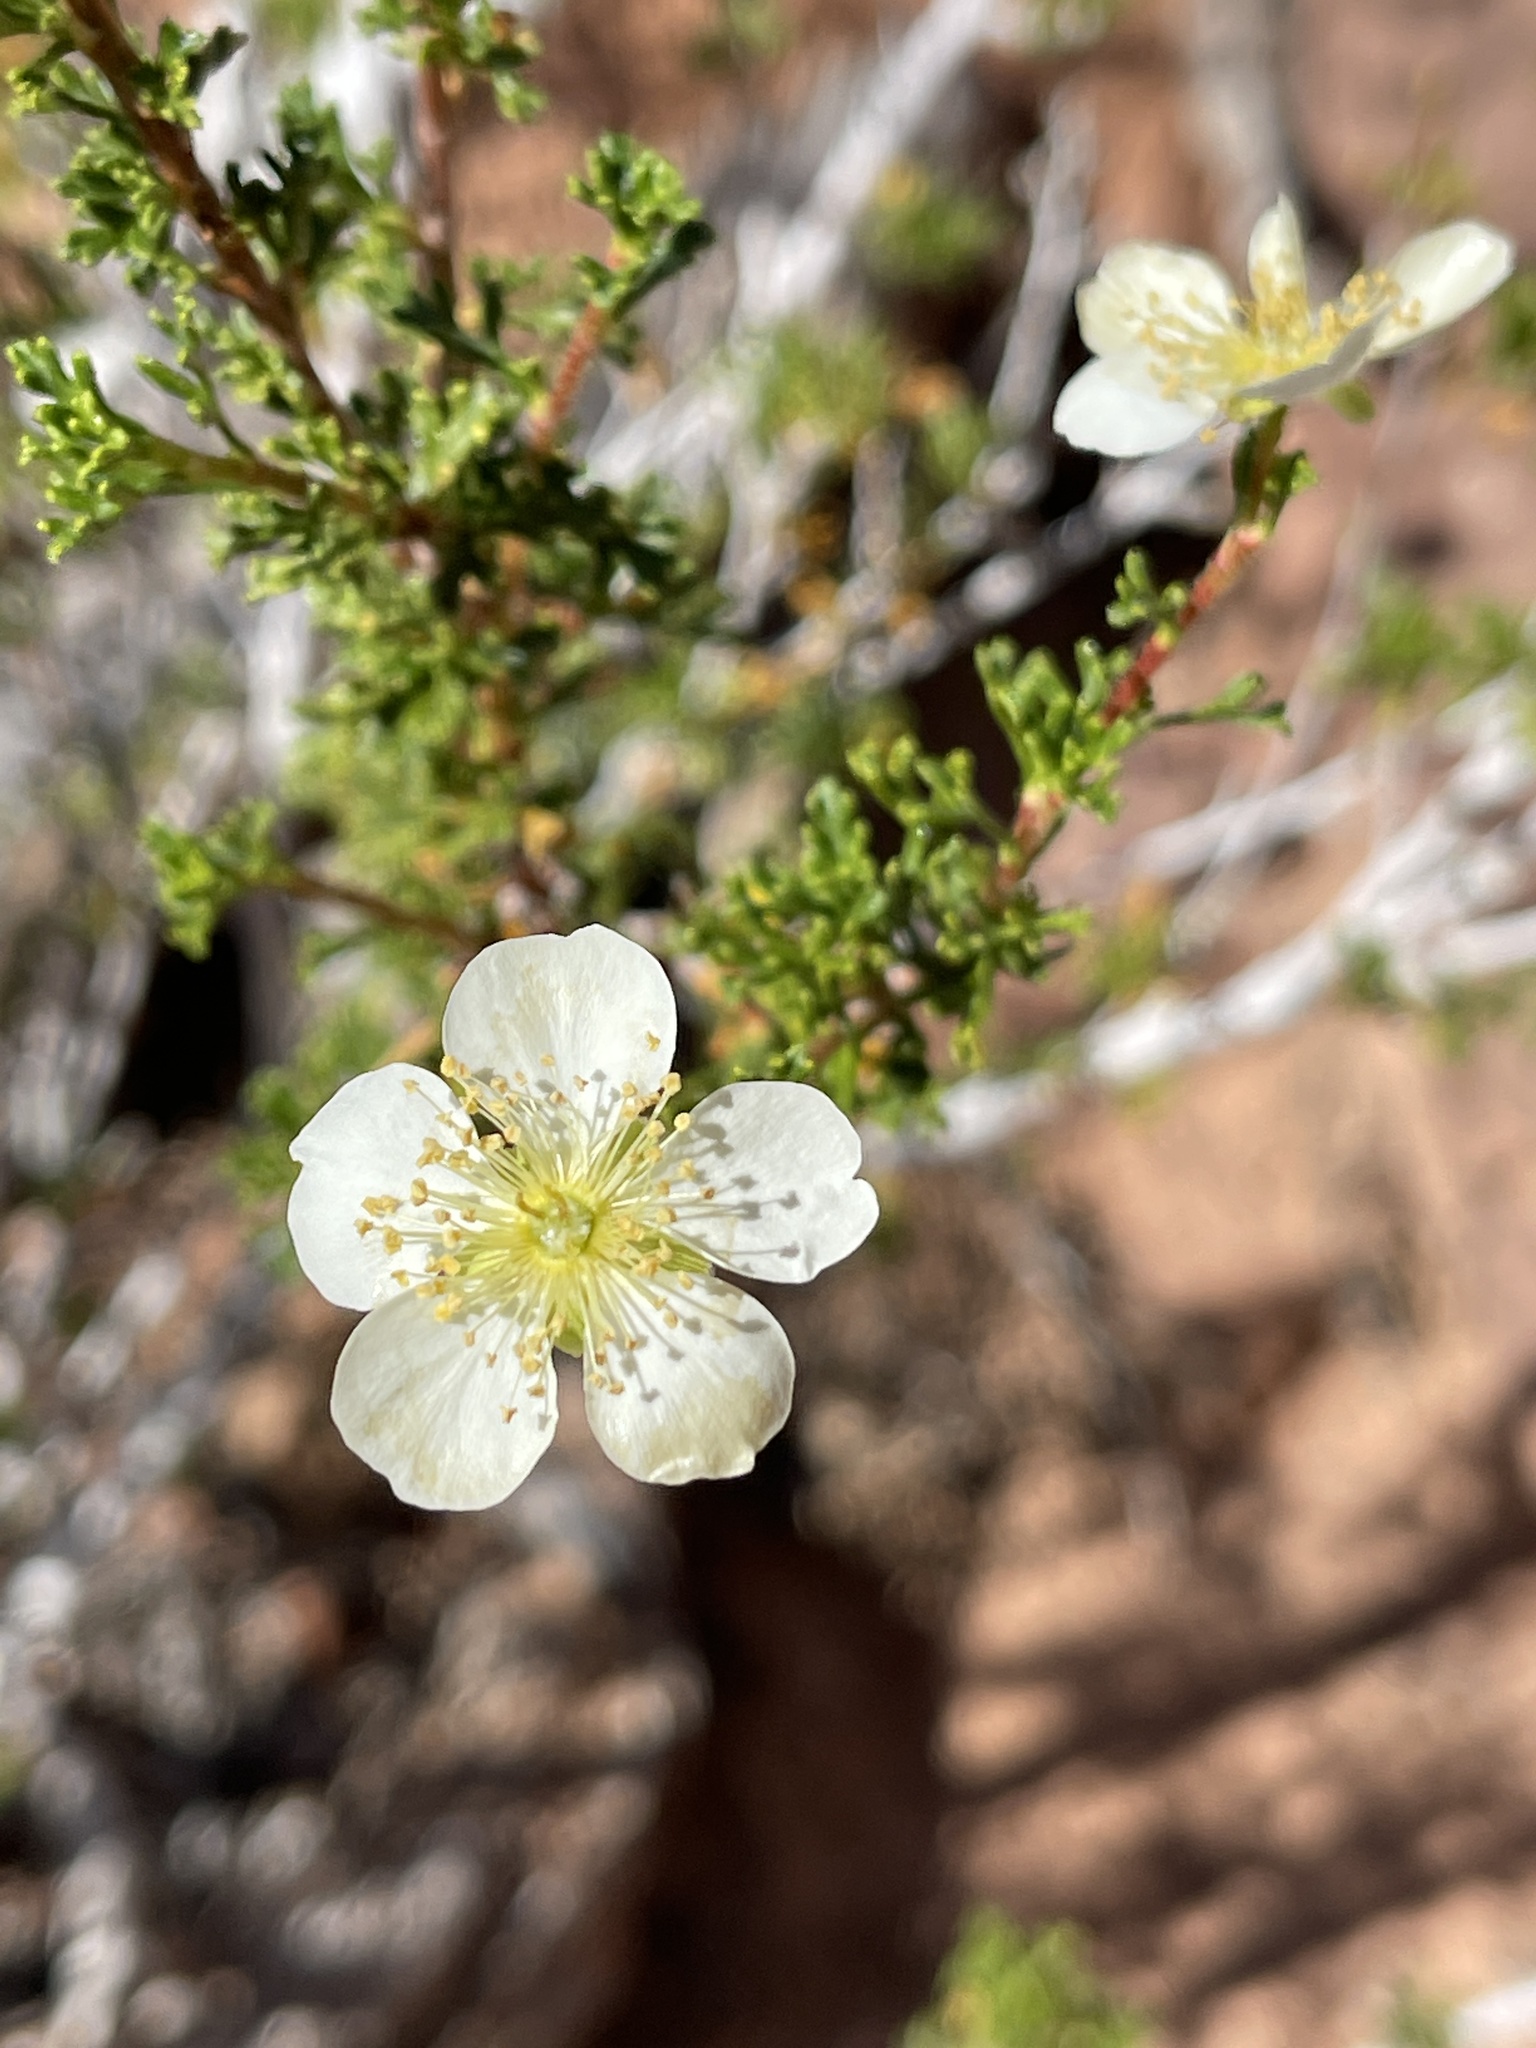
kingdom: Plantae
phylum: Tracheophyta
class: Magnoliopsida
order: Rosales
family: Rosaceae
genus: Purshia
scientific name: Purshia stansburiana
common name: Stansbury's cliffrose
